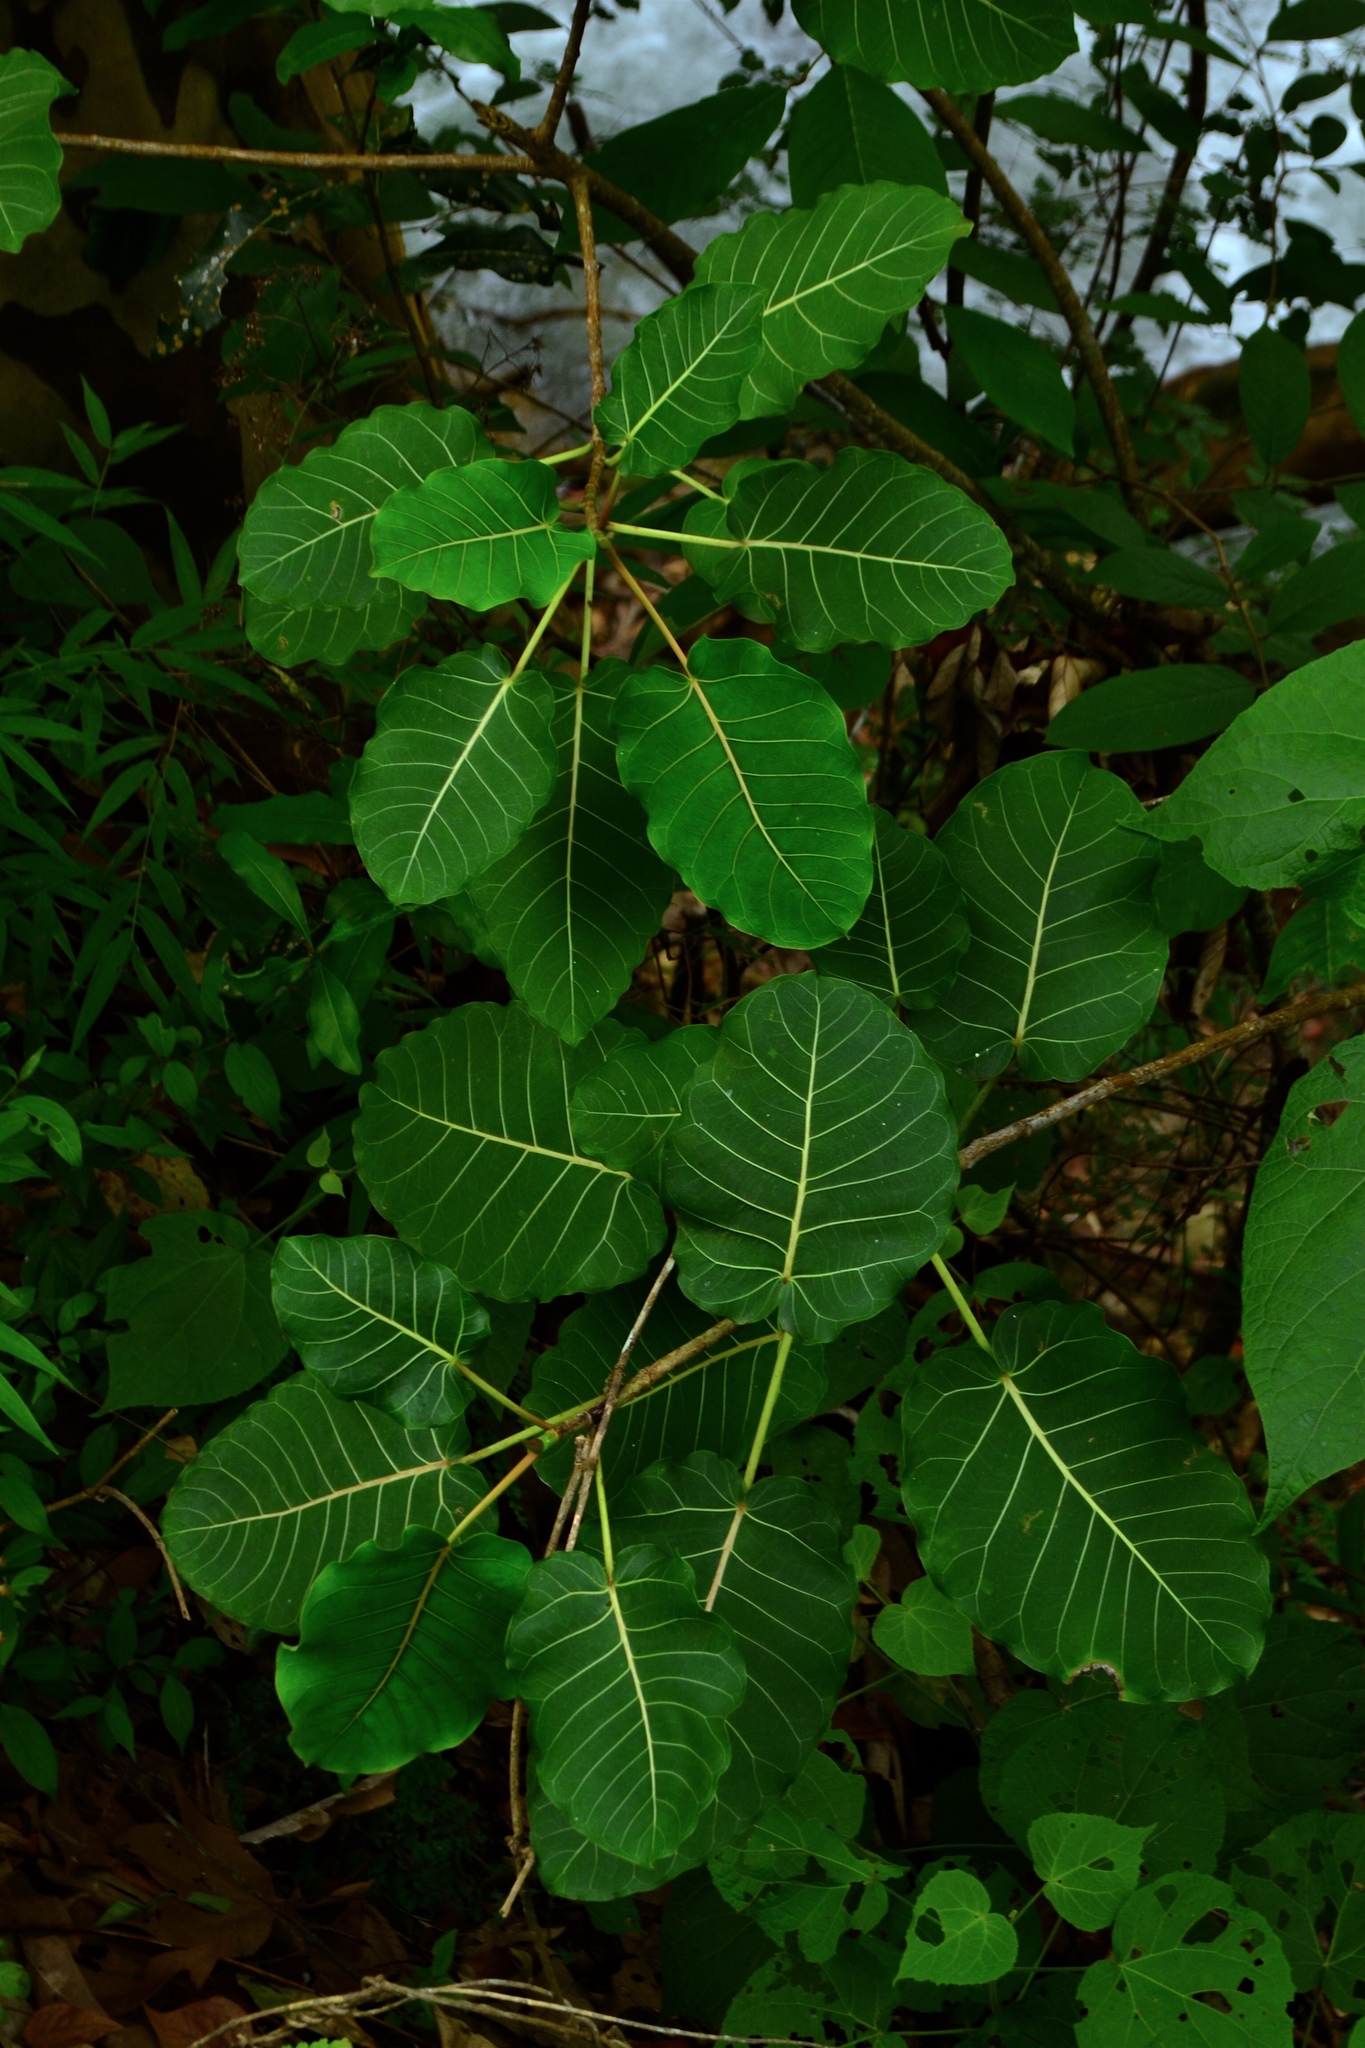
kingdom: Plantae
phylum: Tracheophyta
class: Magnoliopsida
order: Rosales
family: Moraceae
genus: Ficus
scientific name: Ficus petiolaris
